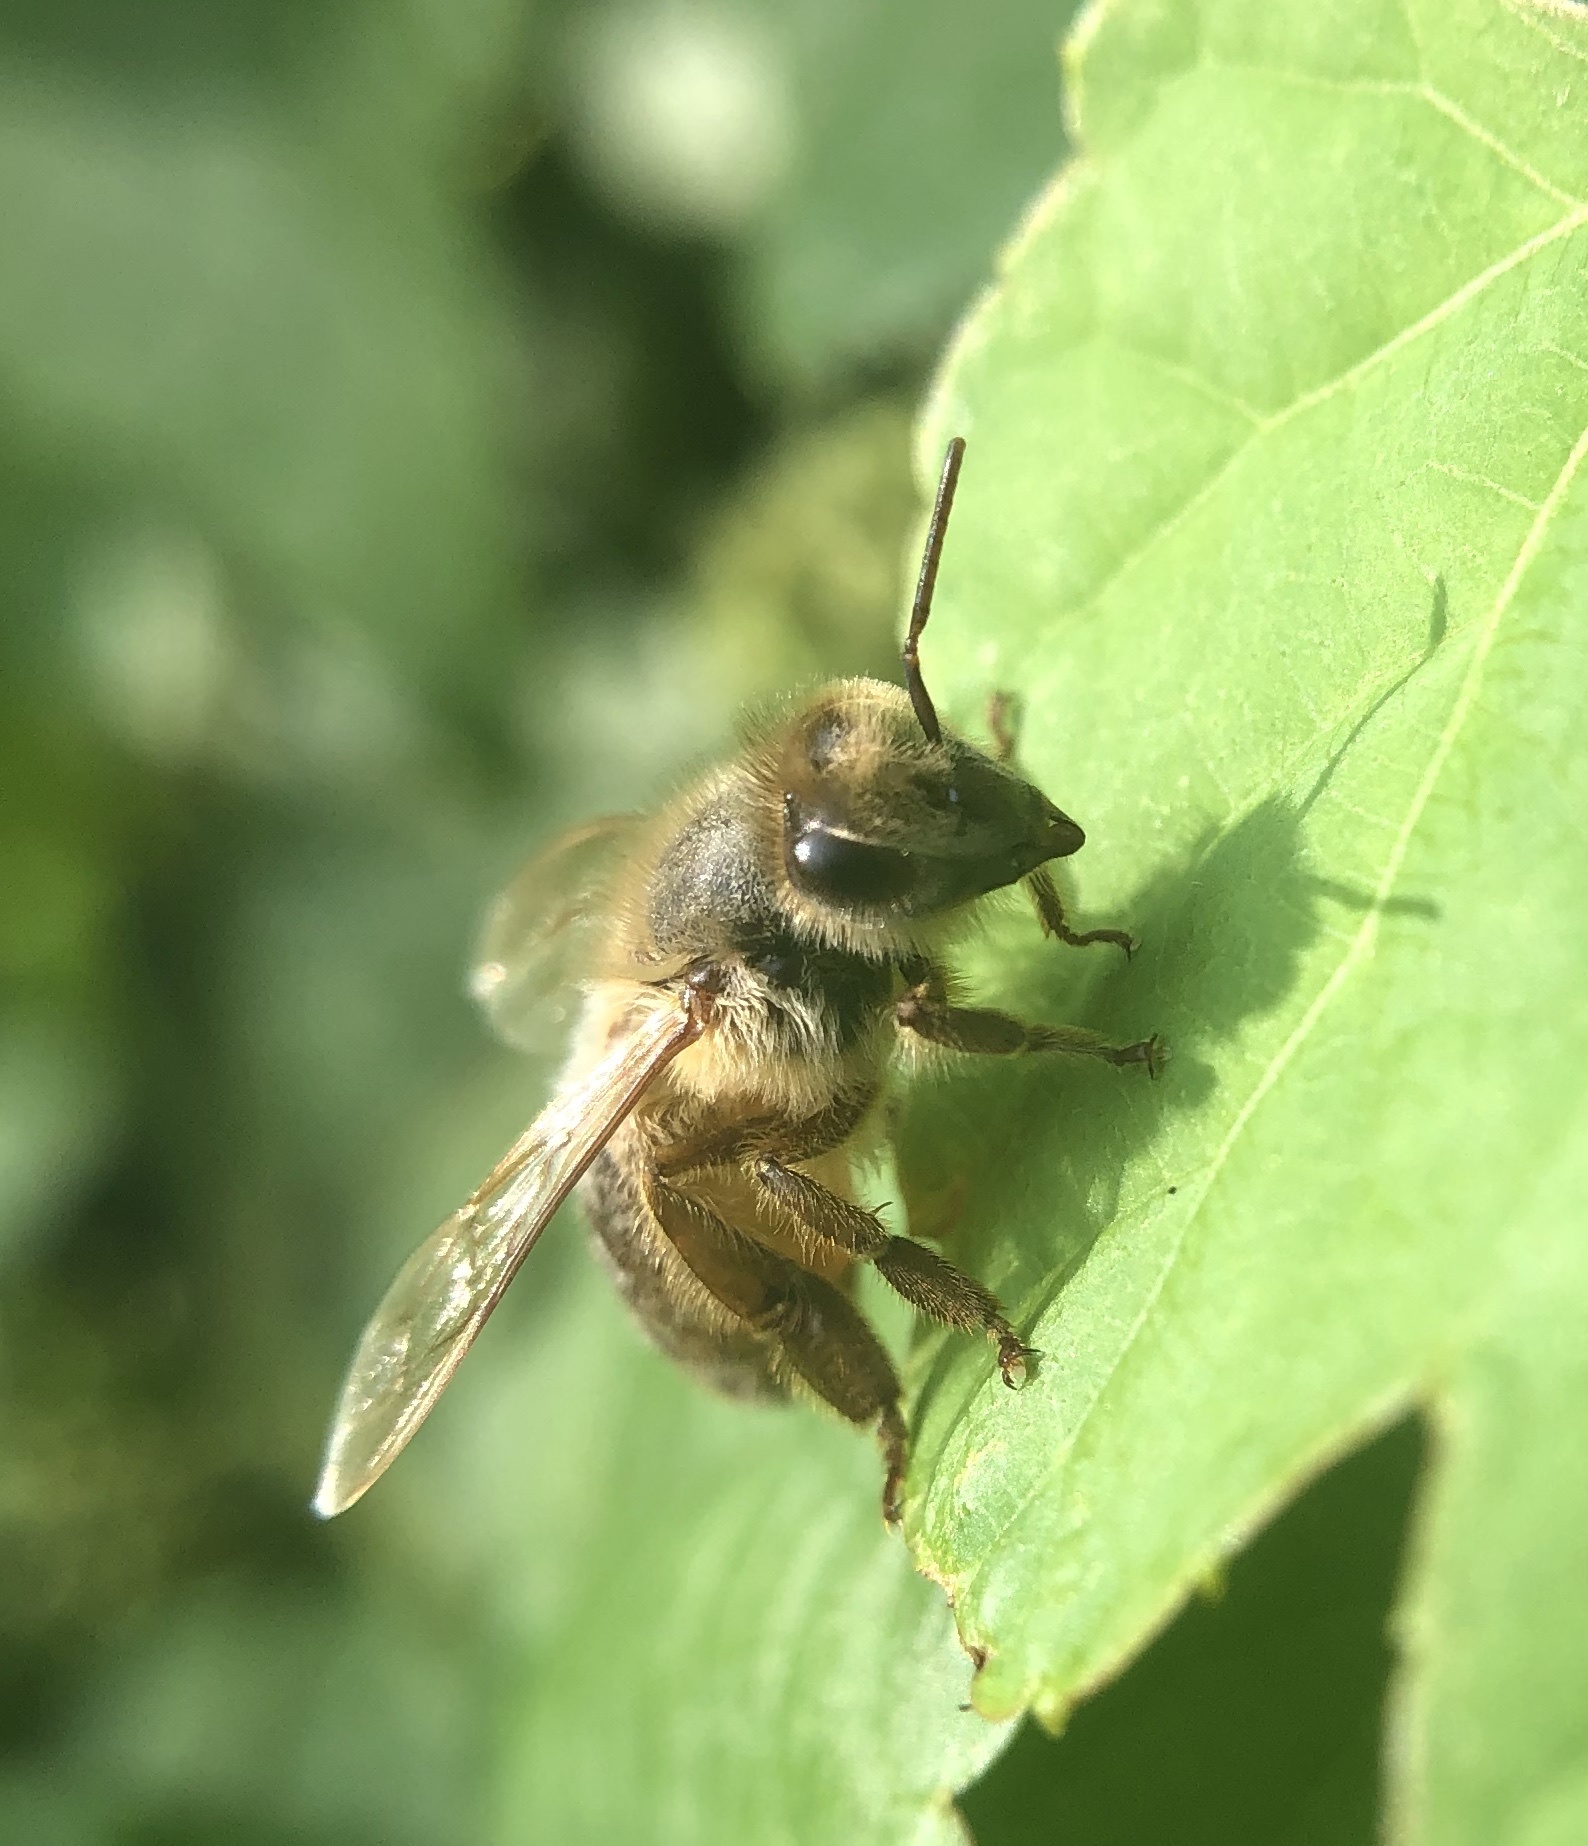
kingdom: Animalia
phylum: Arthropoda
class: Insecta
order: Hymenoptera
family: Apidae
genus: Apis
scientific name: Apis mellifera
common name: Honey bee
